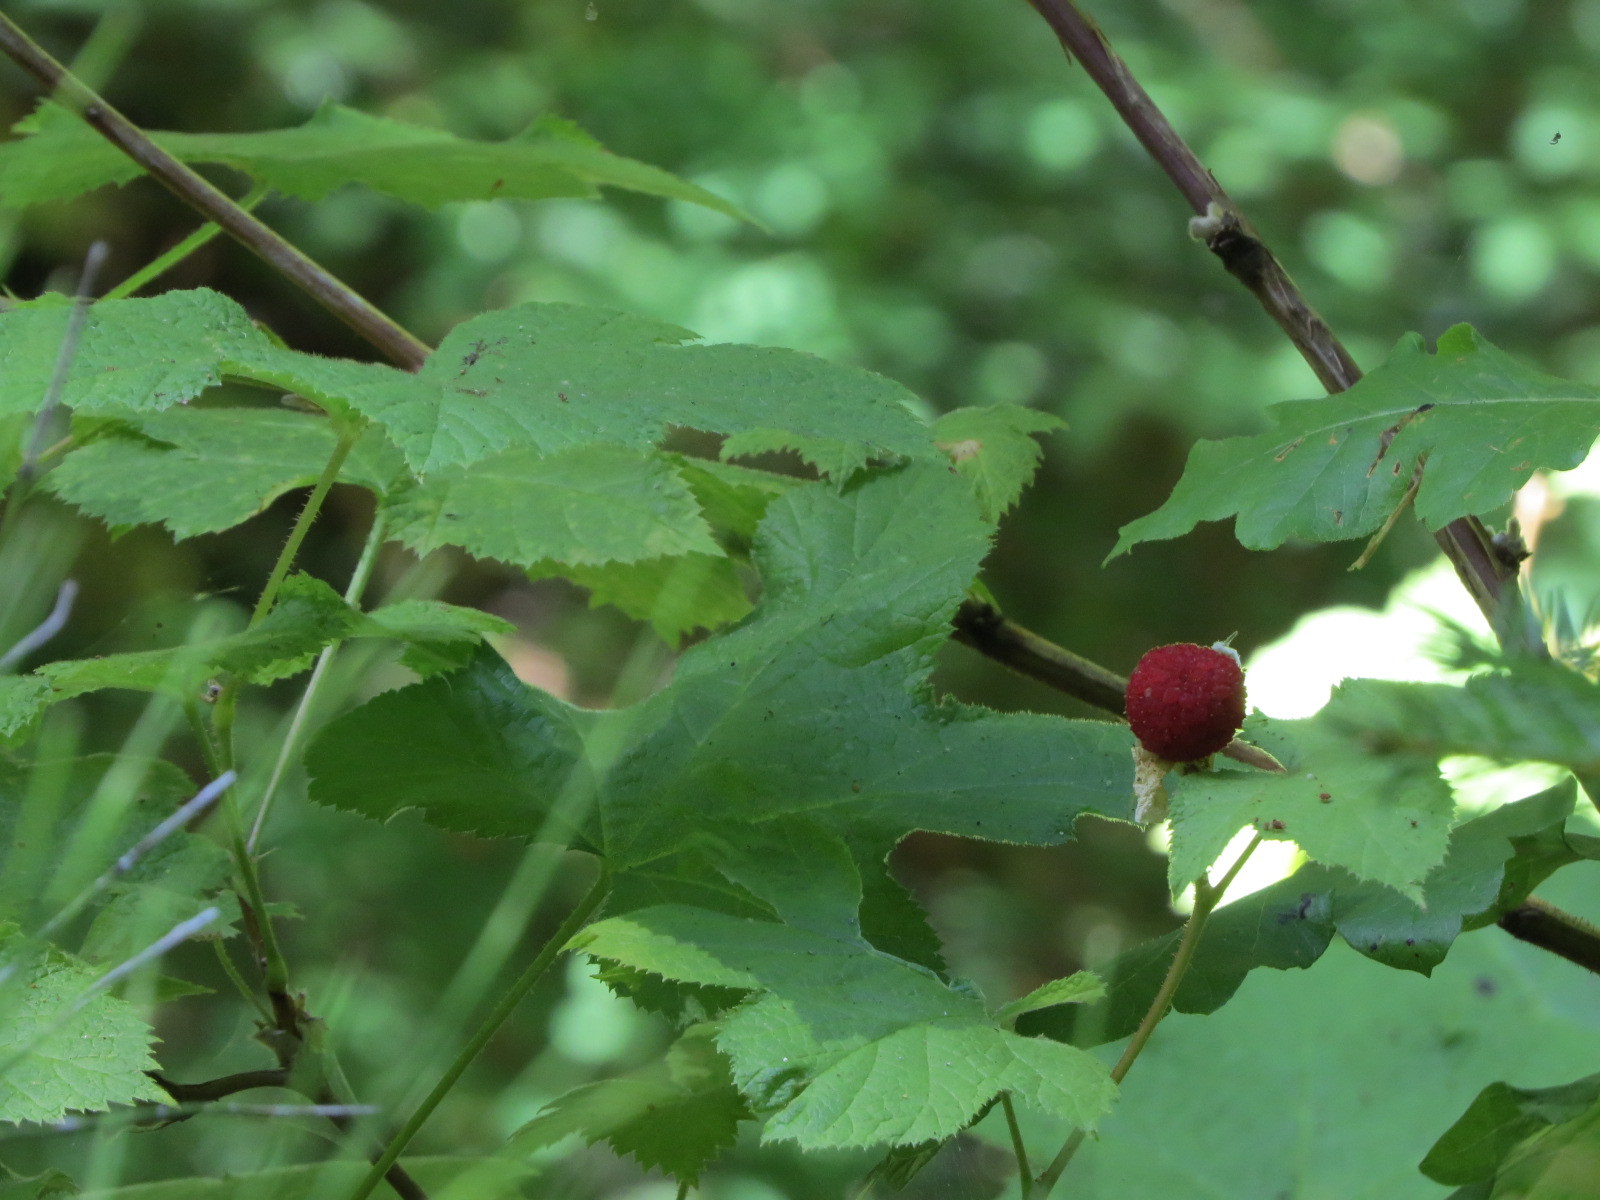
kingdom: Plantae
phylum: Tracheophyta
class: Magnoliopsida
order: Rosales
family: Rosaceae
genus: Rubus
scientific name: Rubus parviflorus
